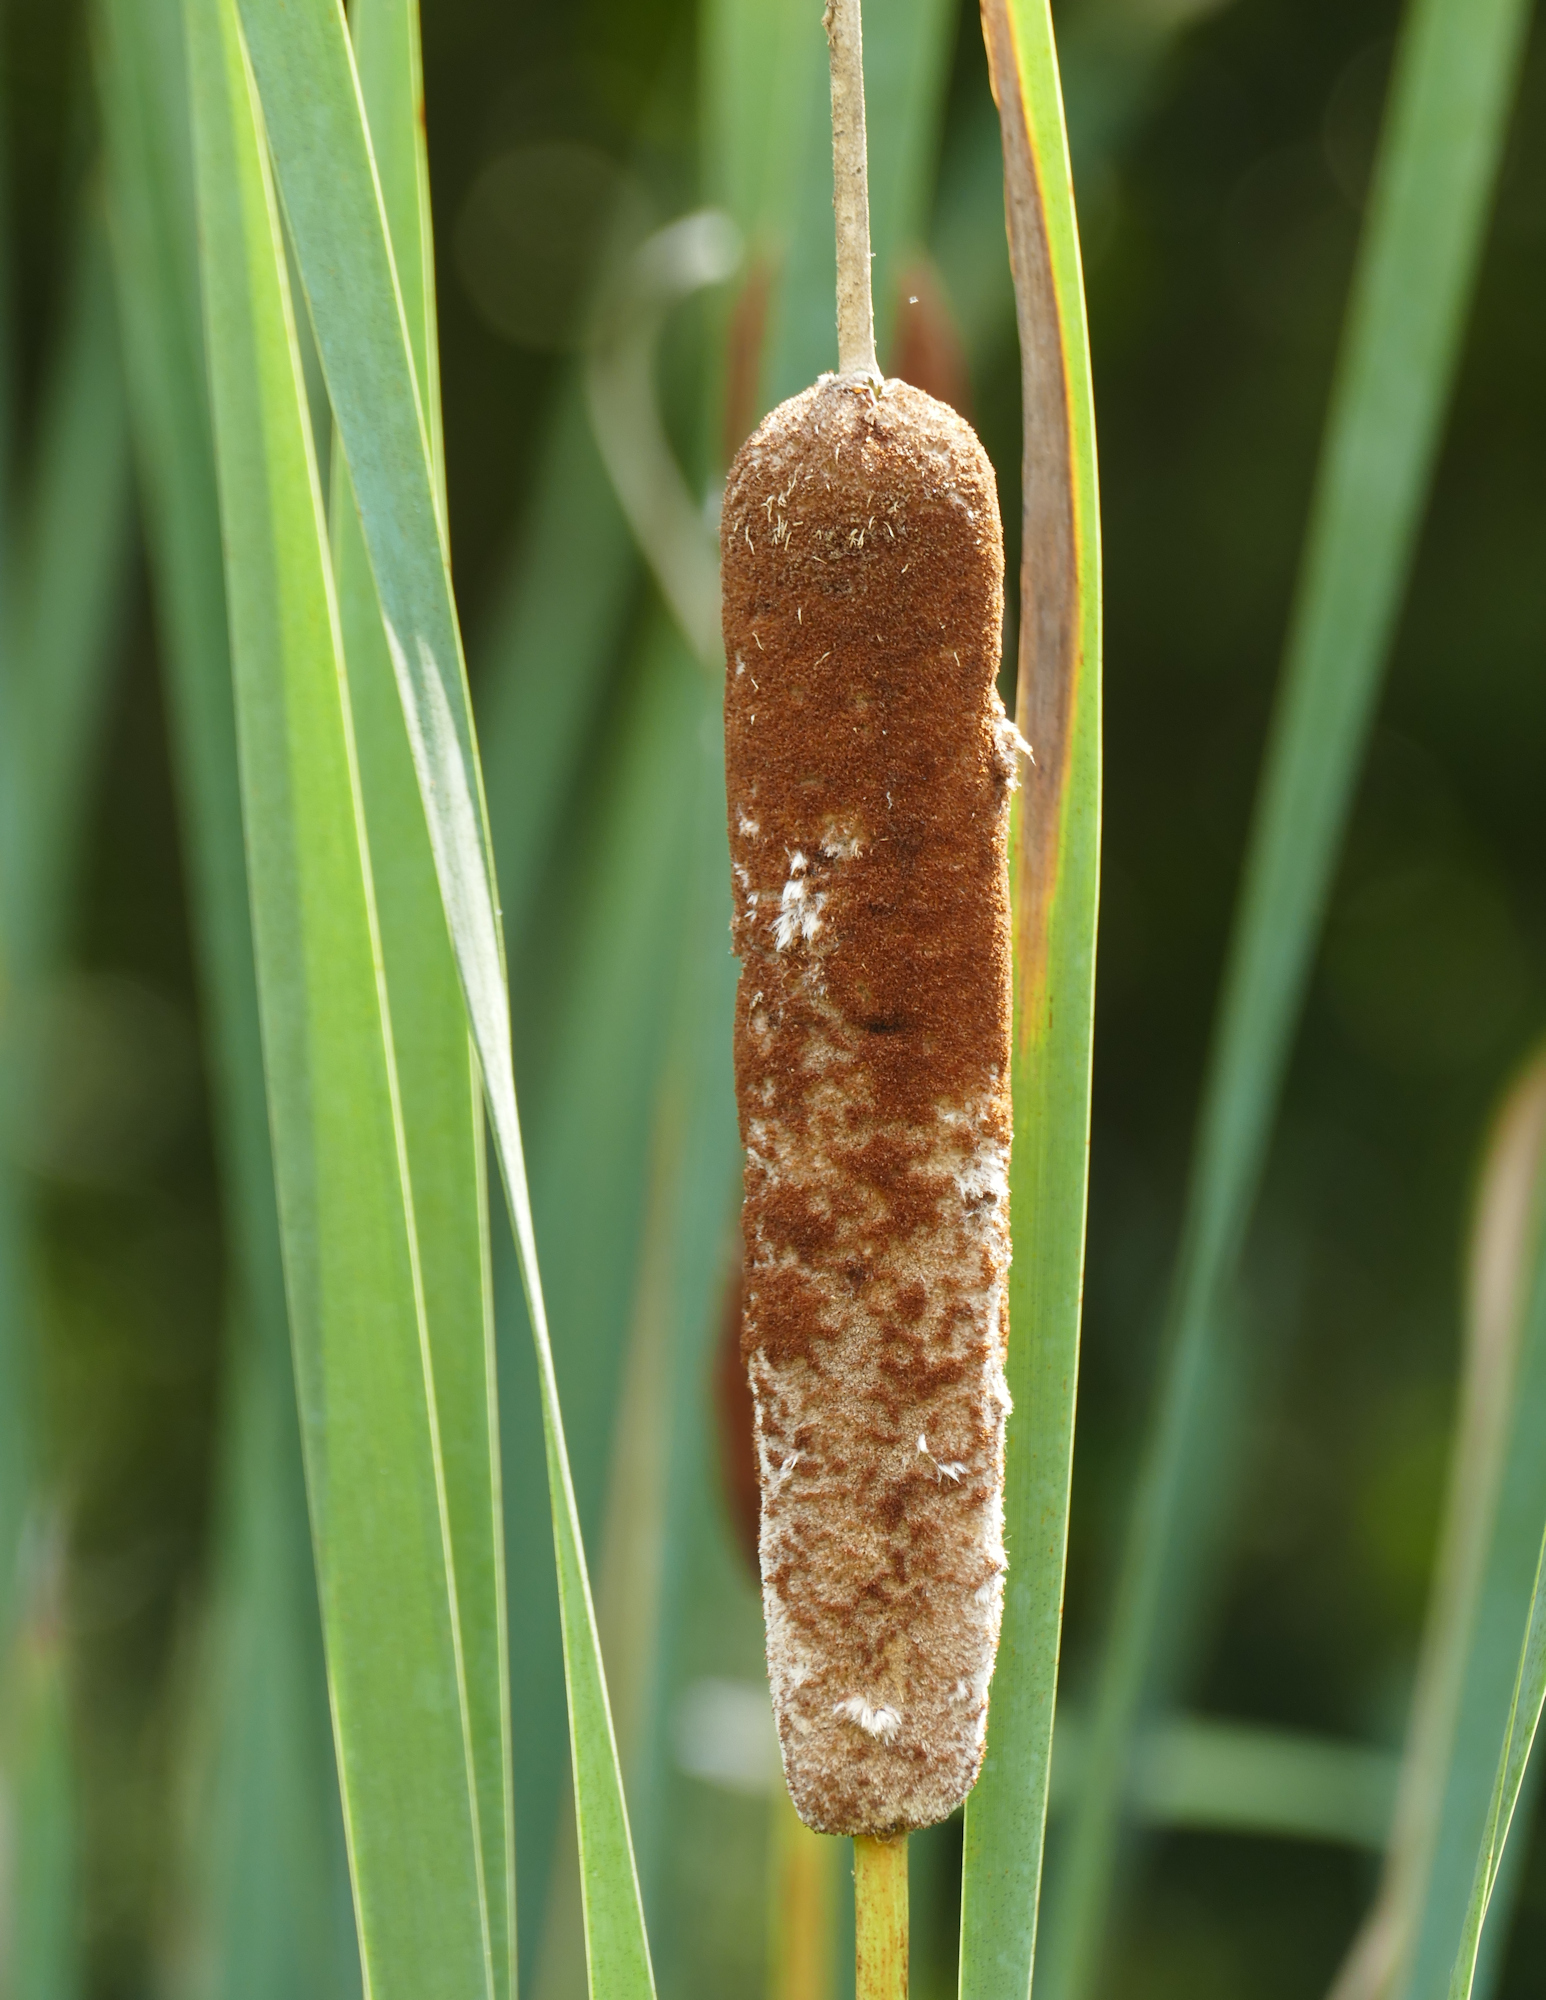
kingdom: Plantae
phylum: Tracheophyta
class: Liliopsida
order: Poales
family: Typhaceae
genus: Typha
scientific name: Typha latifolia
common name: Broadleaf cattail
